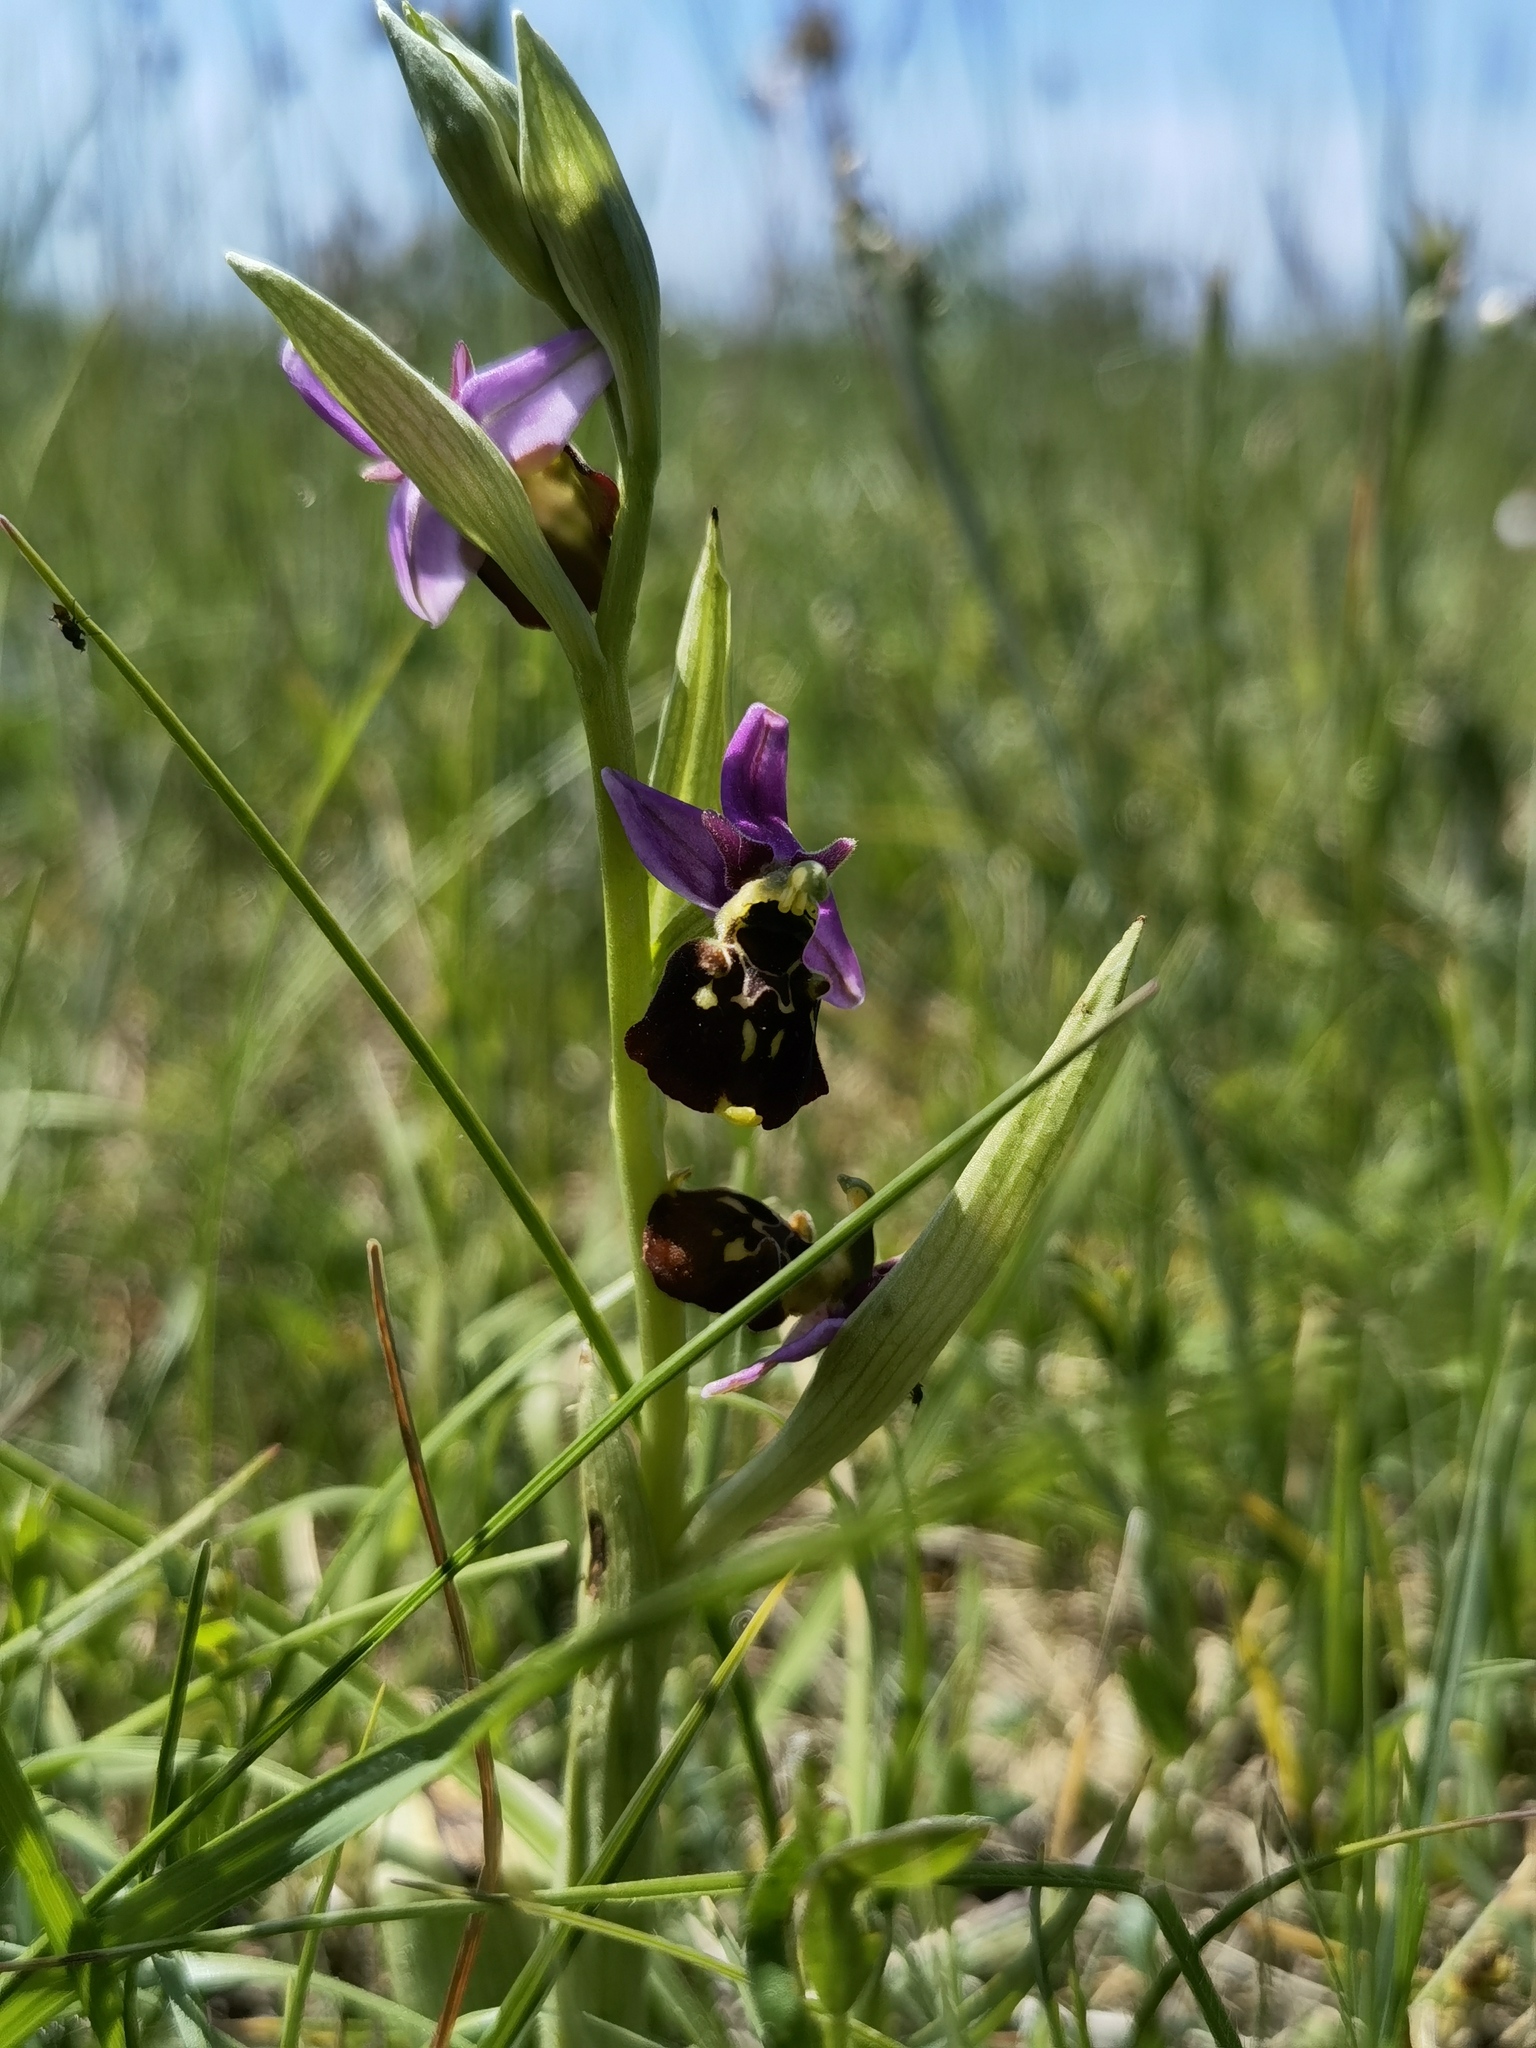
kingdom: Plantae
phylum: Tracheophyta
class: Liliopsida
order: Asparagales
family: Orchidaceae
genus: Ophrys
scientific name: Ophrys holosericea
